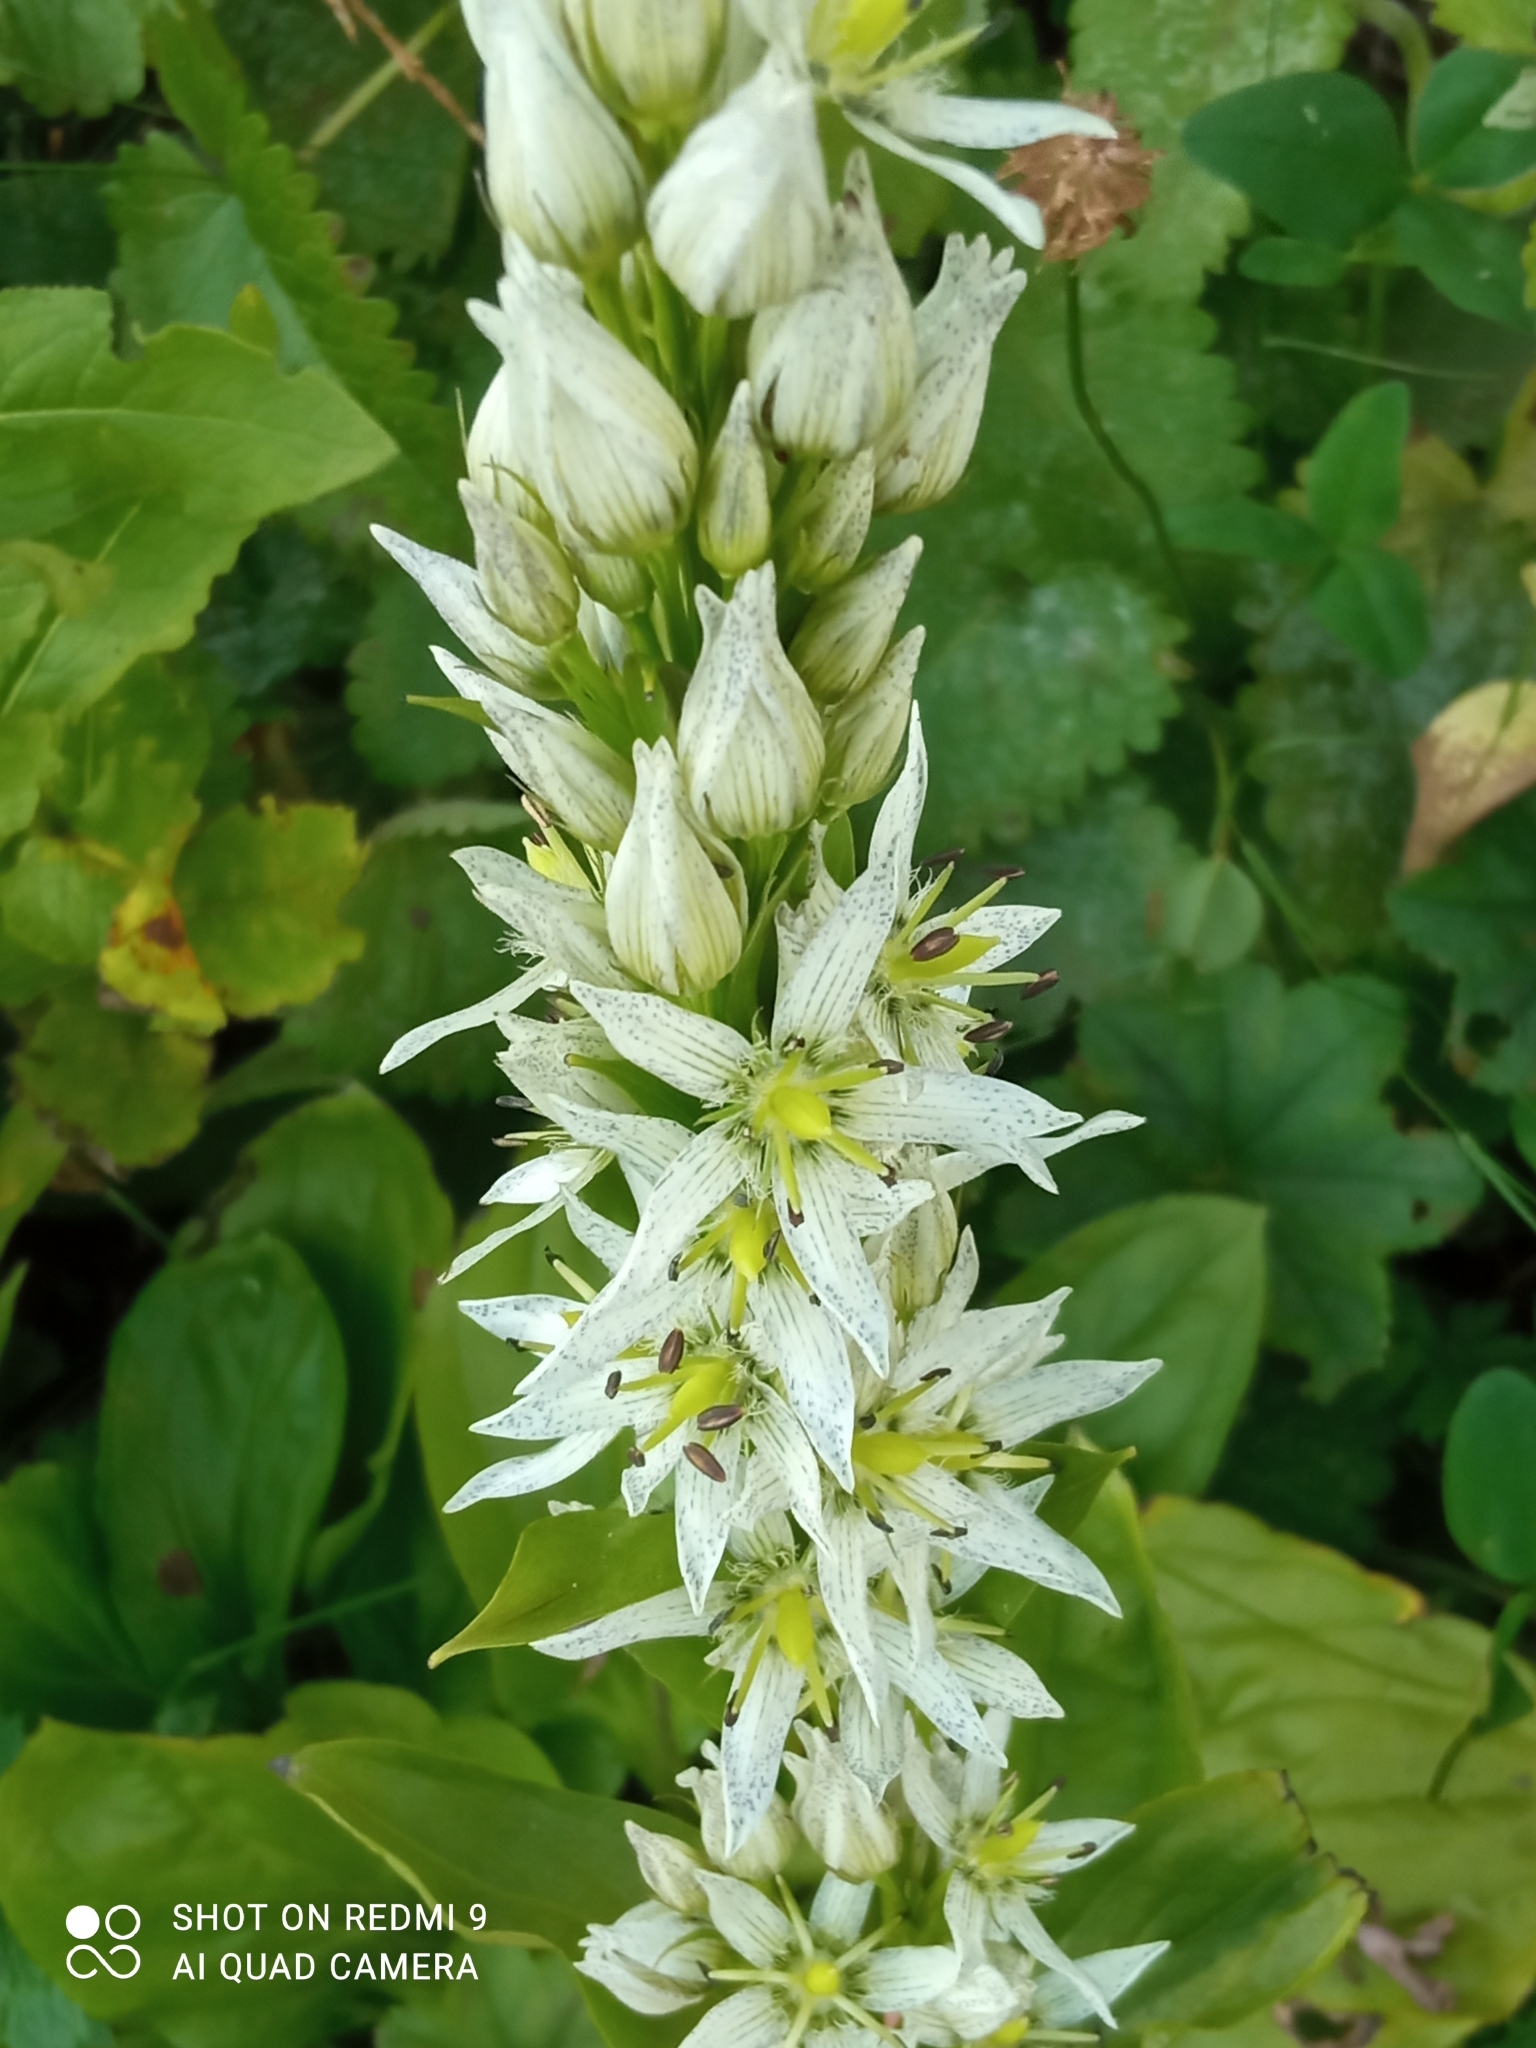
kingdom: Plantae
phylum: Tracheophyta
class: Magnoliopsida
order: Gentianales
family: Gentianaceae
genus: Swertia
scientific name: Swertia iberica
